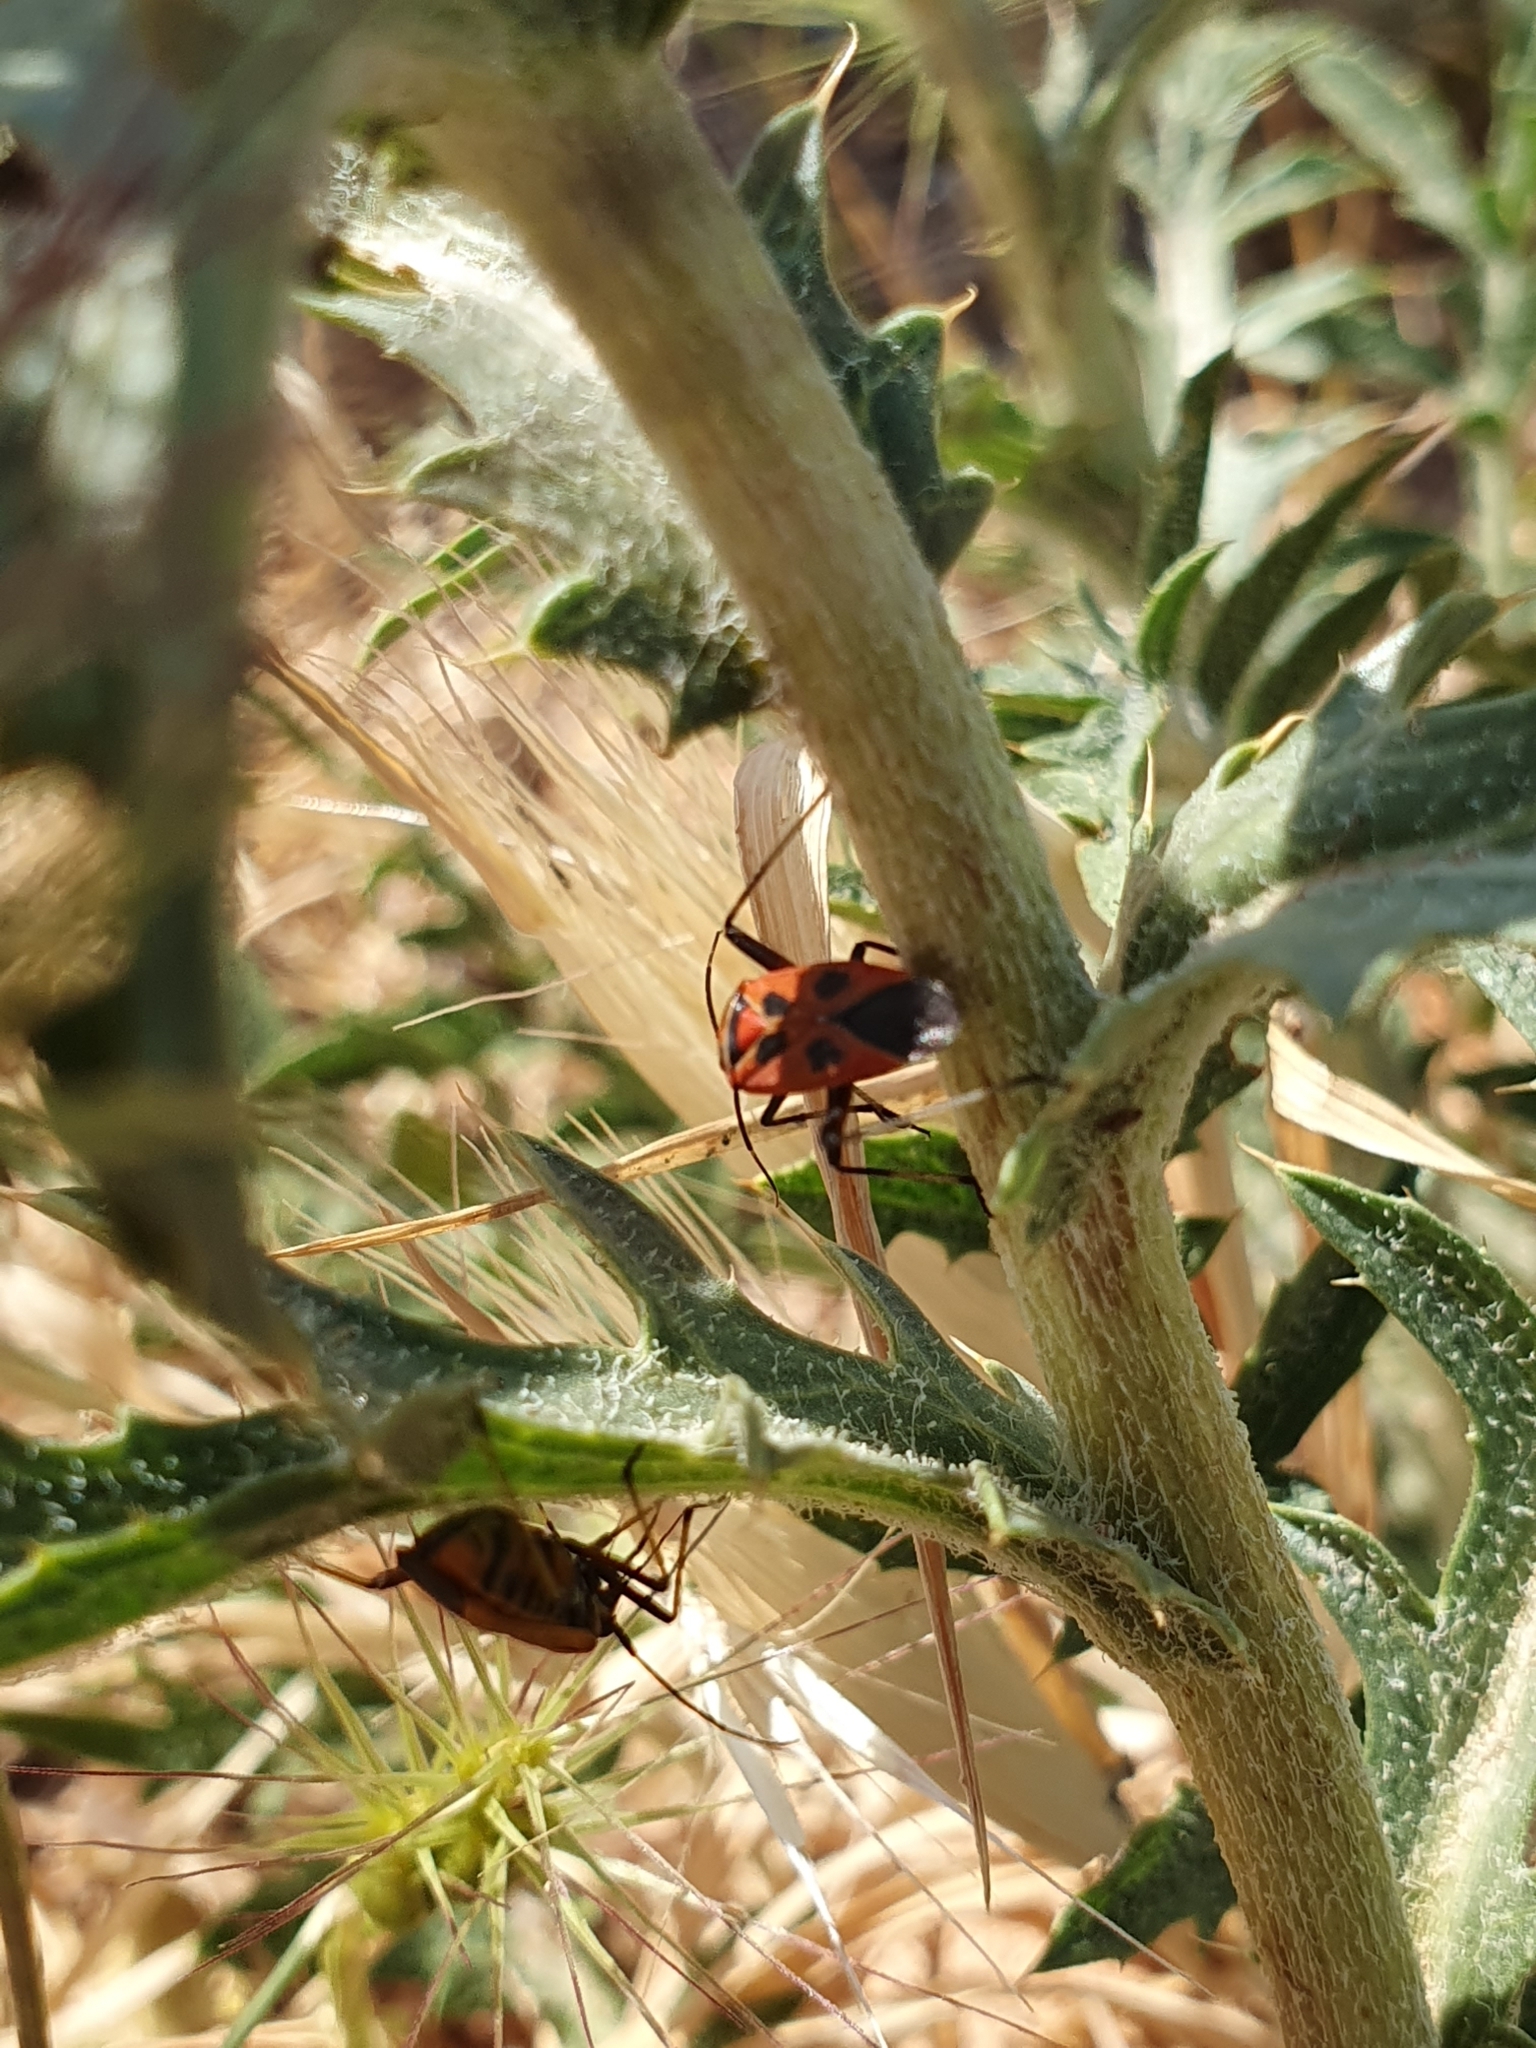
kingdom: Animalia
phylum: Arthropoda
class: Insecta
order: Hemiptera
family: Miridae
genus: Calocoris
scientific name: Calocoris nemoralis
